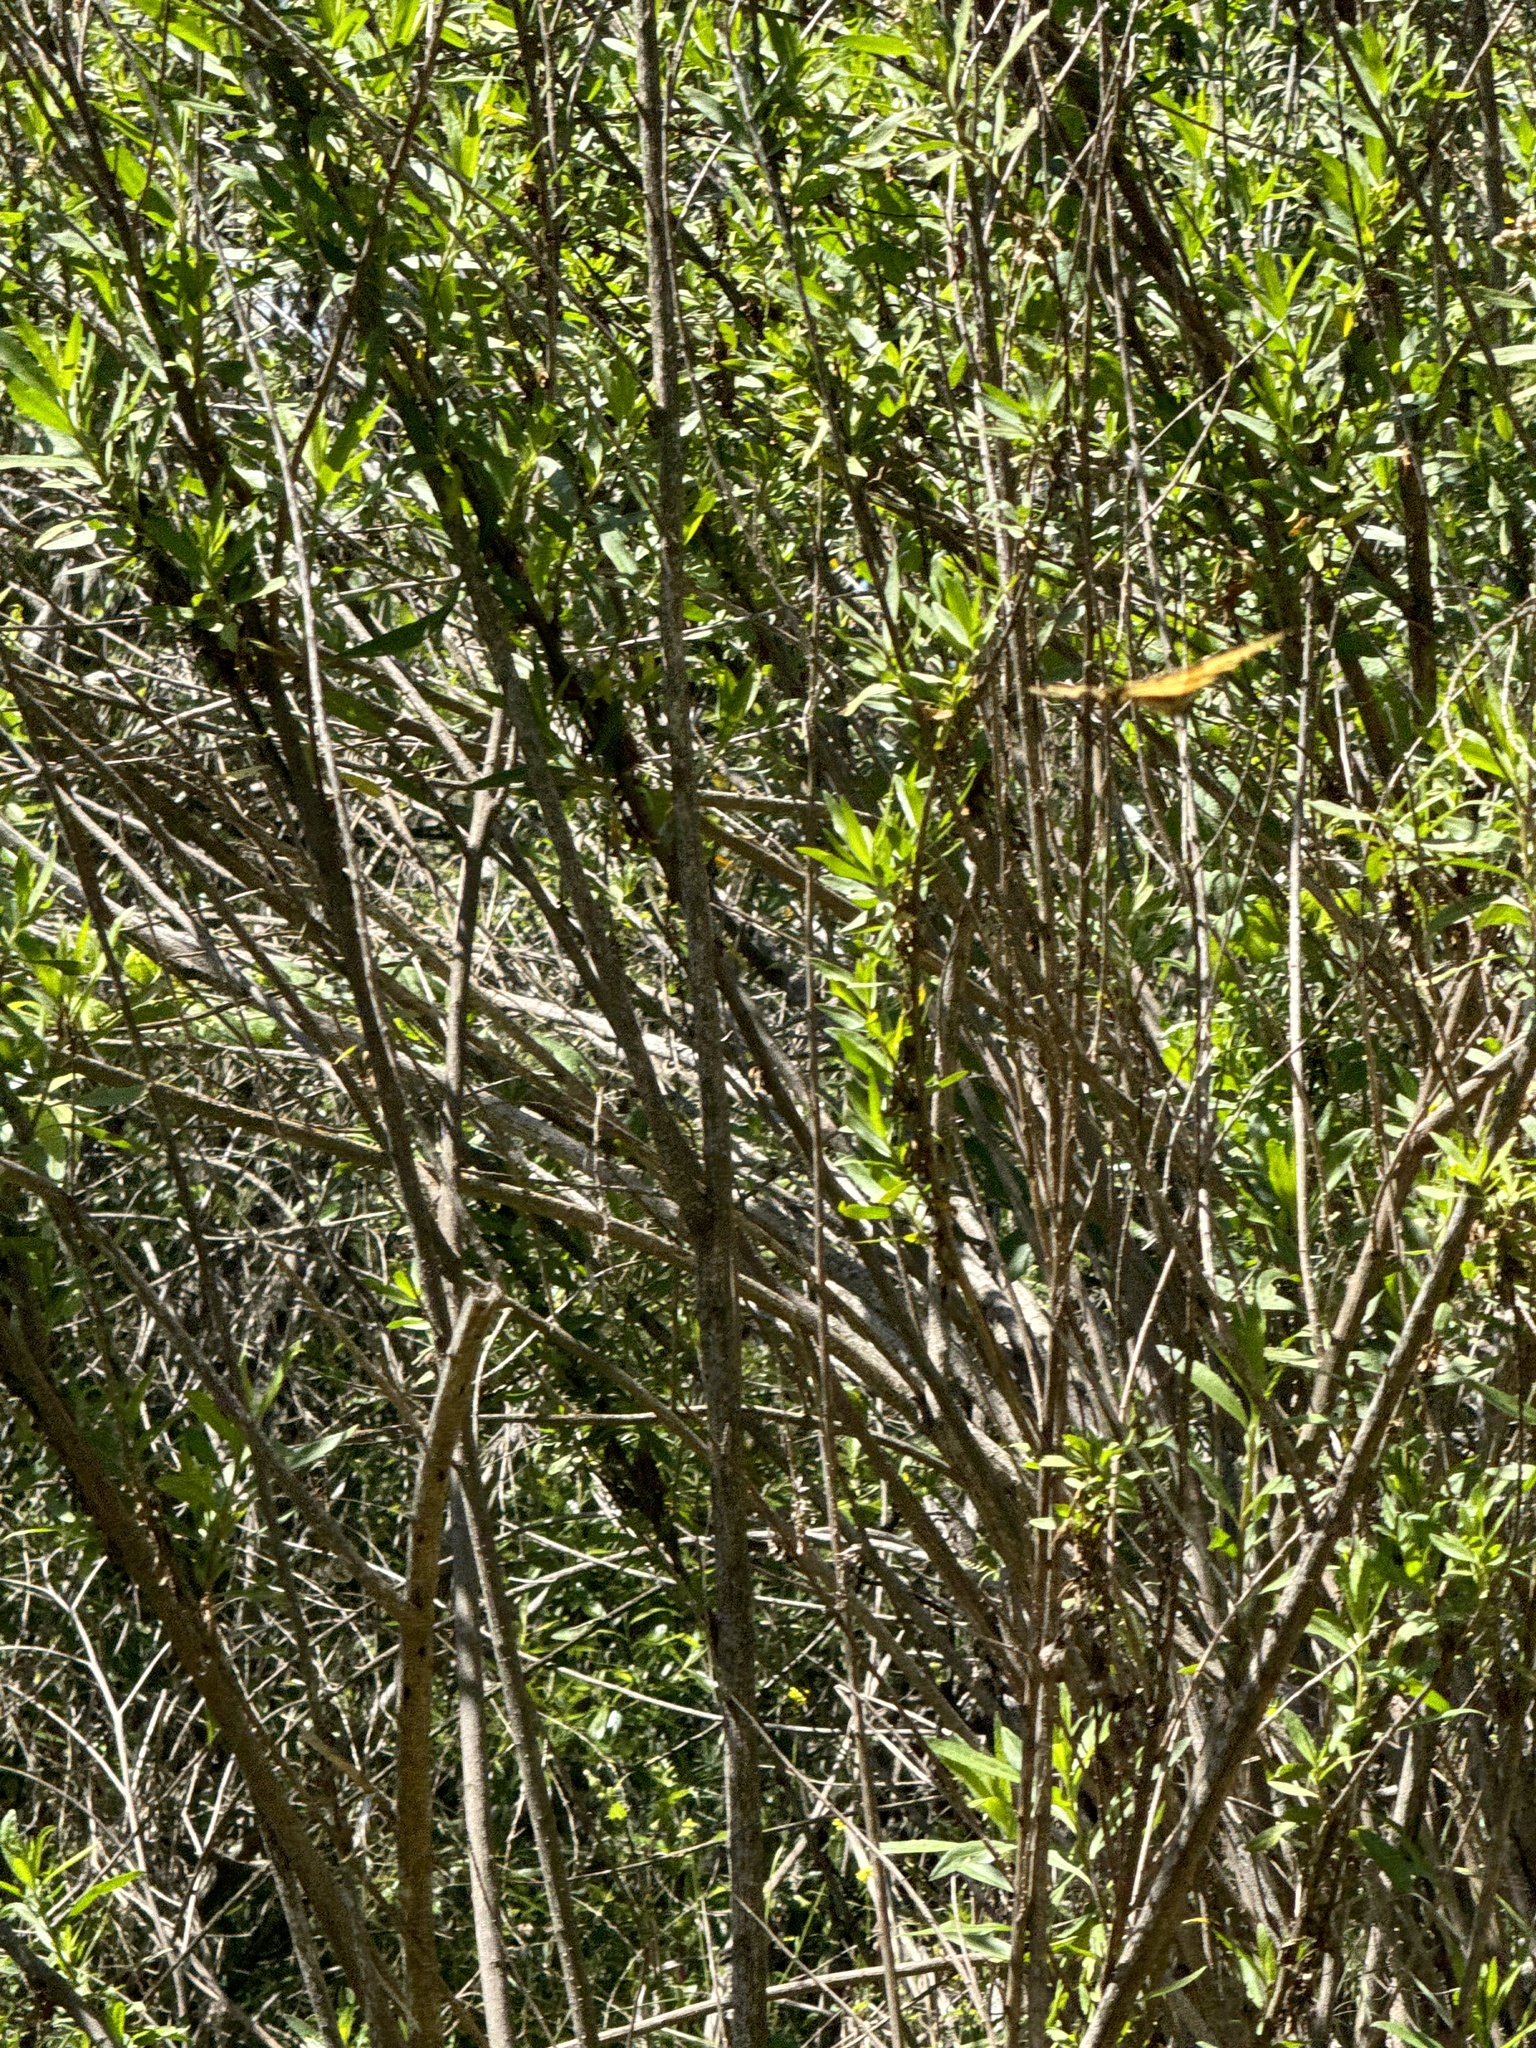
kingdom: Animalia
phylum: Arthropoda
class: Insecta
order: Lepidoptera
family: Papilionidae
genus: Papilio
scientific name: Papilio rutulus
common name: Western tiger swallowtail
